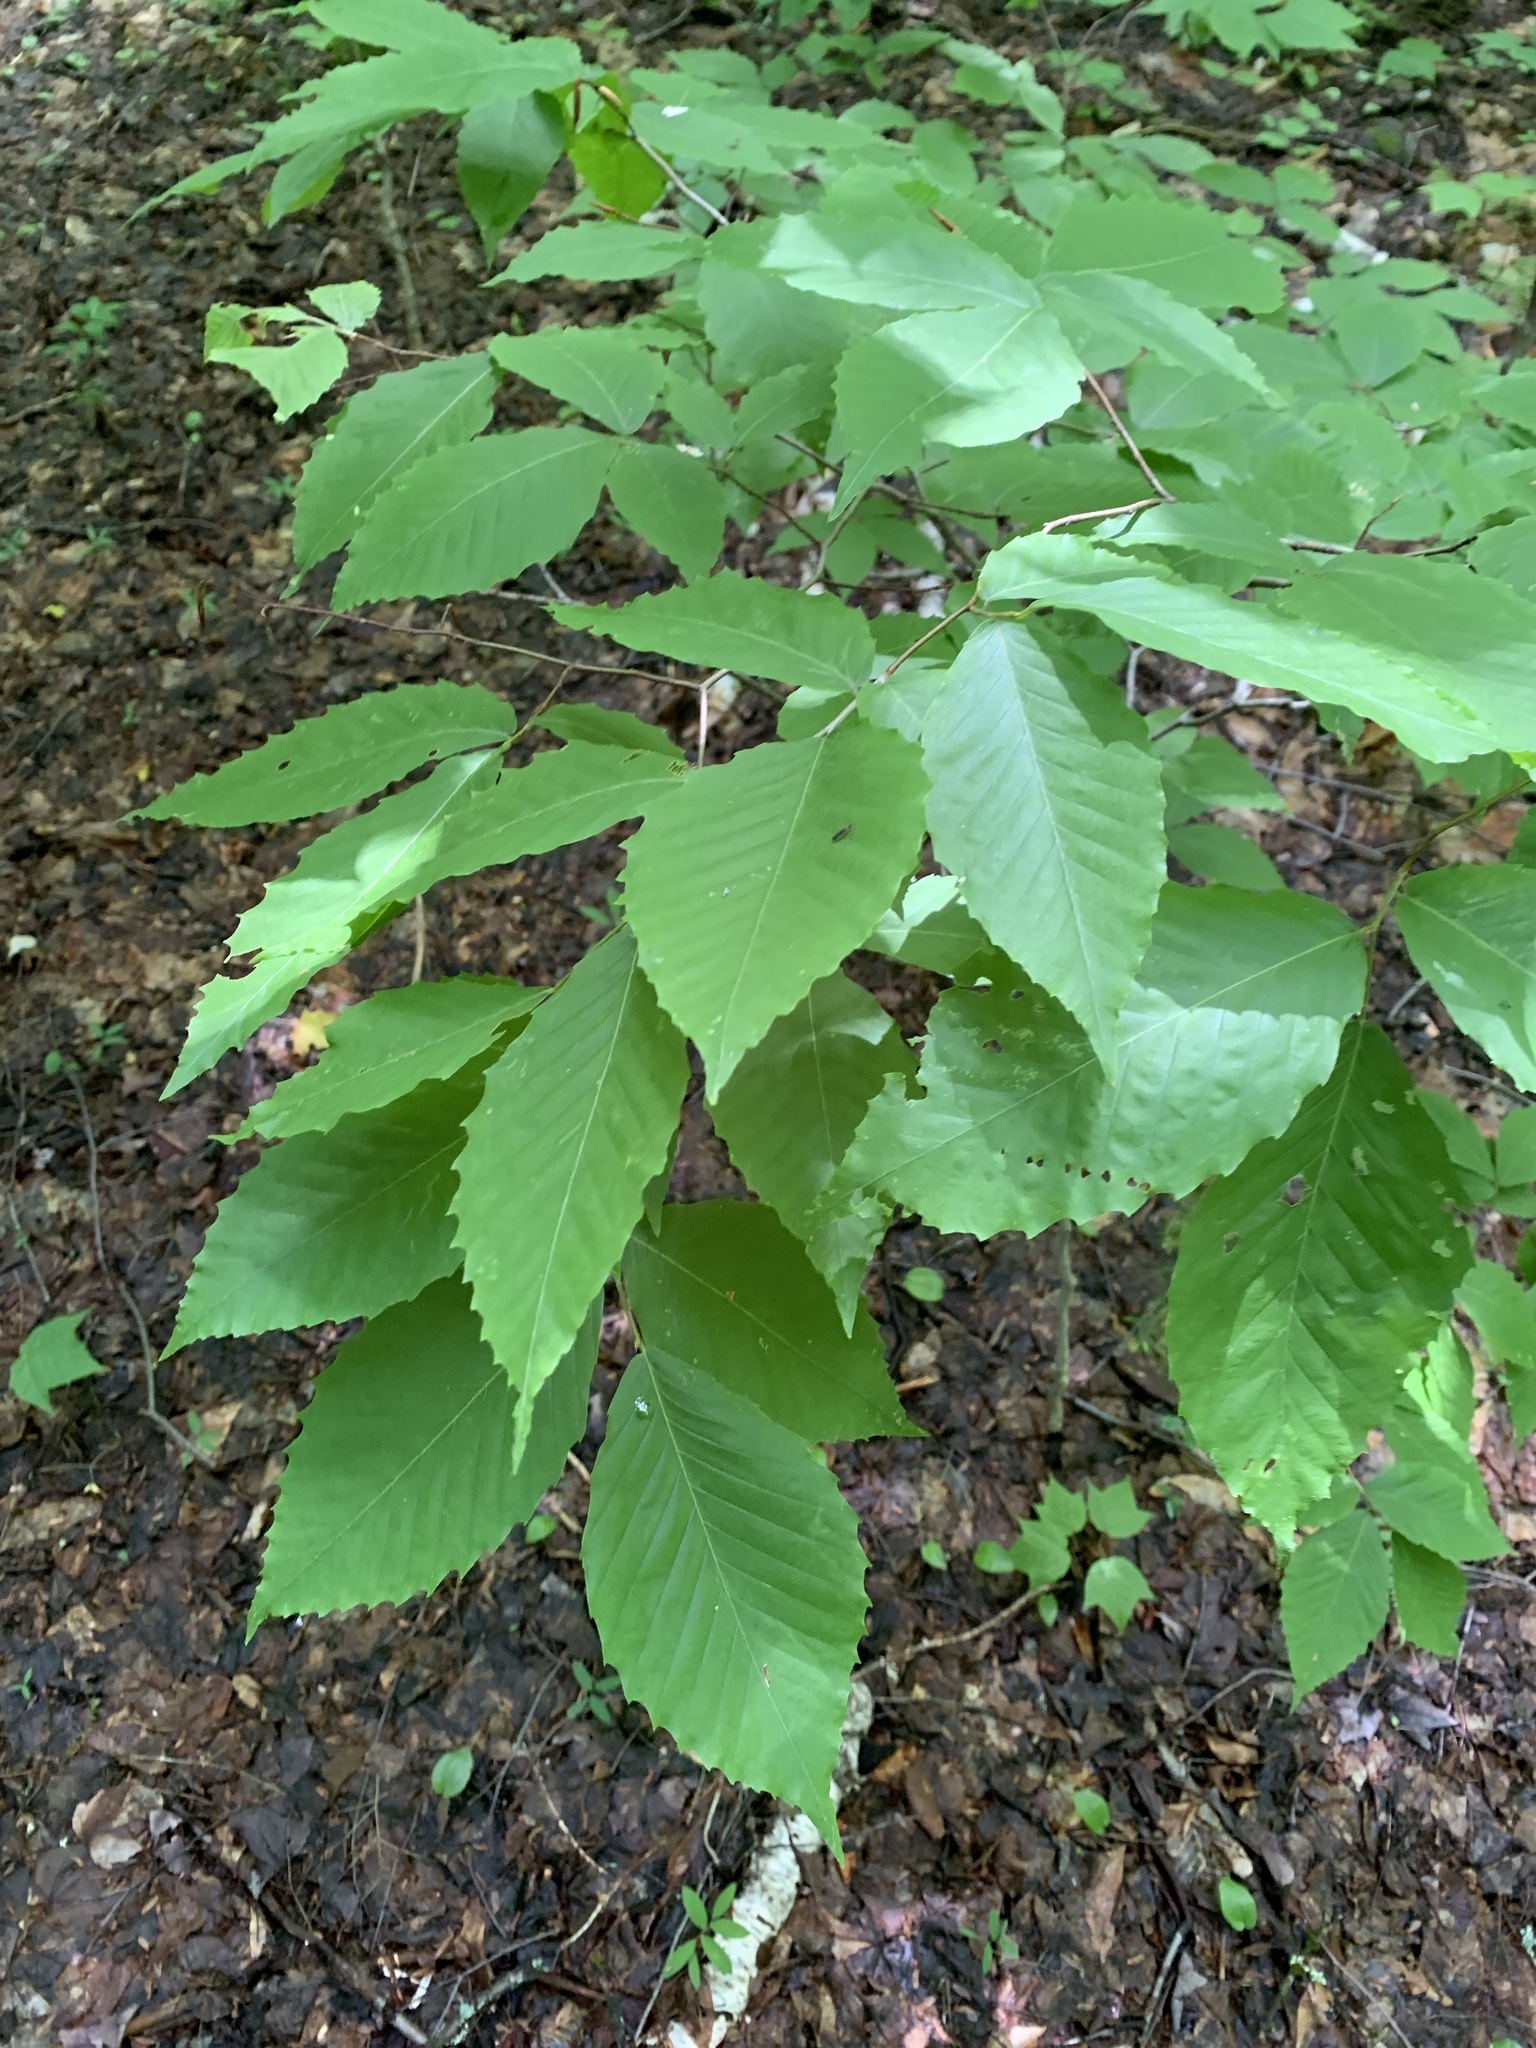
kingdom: Plantae
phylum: Tracheophyta
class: Magnoliopsida
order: Fagales
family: Fagaceae
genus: Fagus
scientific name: Fagus grandifolia
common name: American beech
